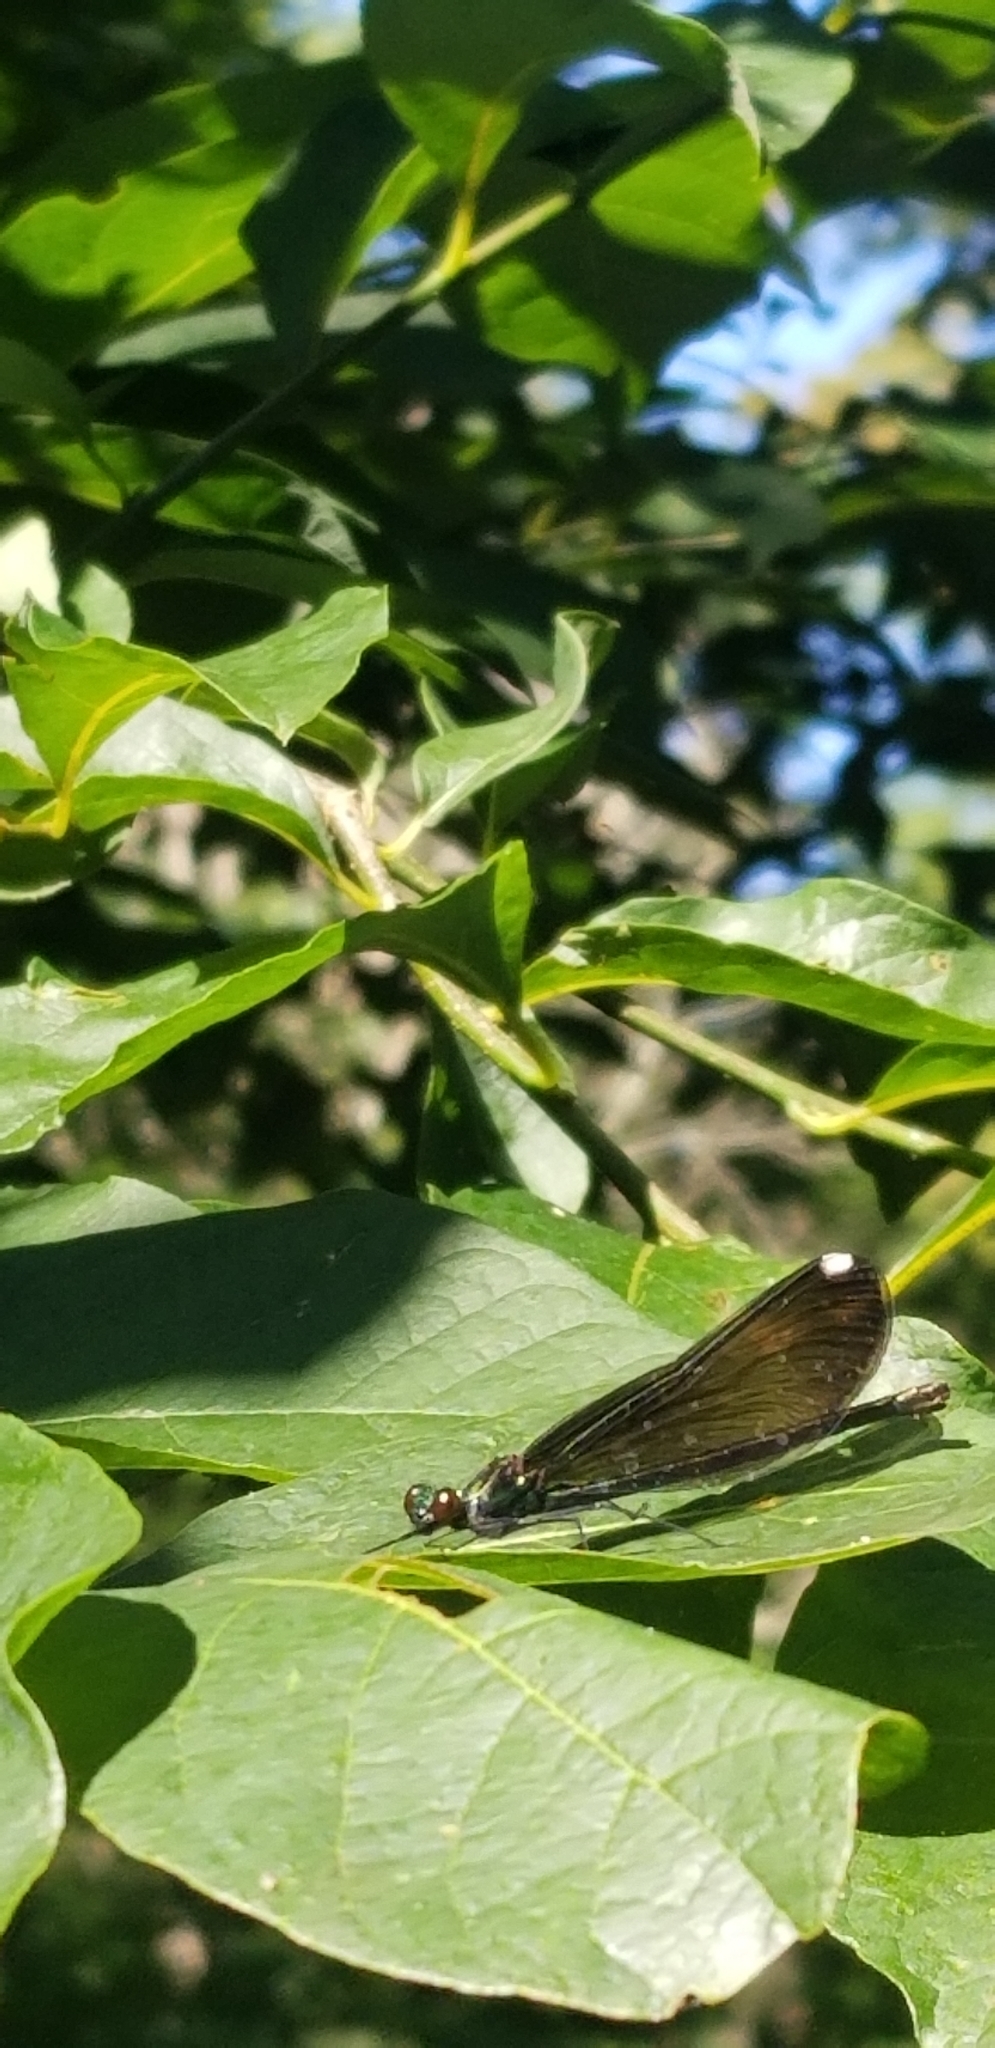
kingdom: Animalia
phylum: Arthropoda
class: Insecta
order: Odonata
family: Calopterygidae
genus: Calopteryx
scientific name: Calopteryx maculata
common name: Ebony jewelwing
